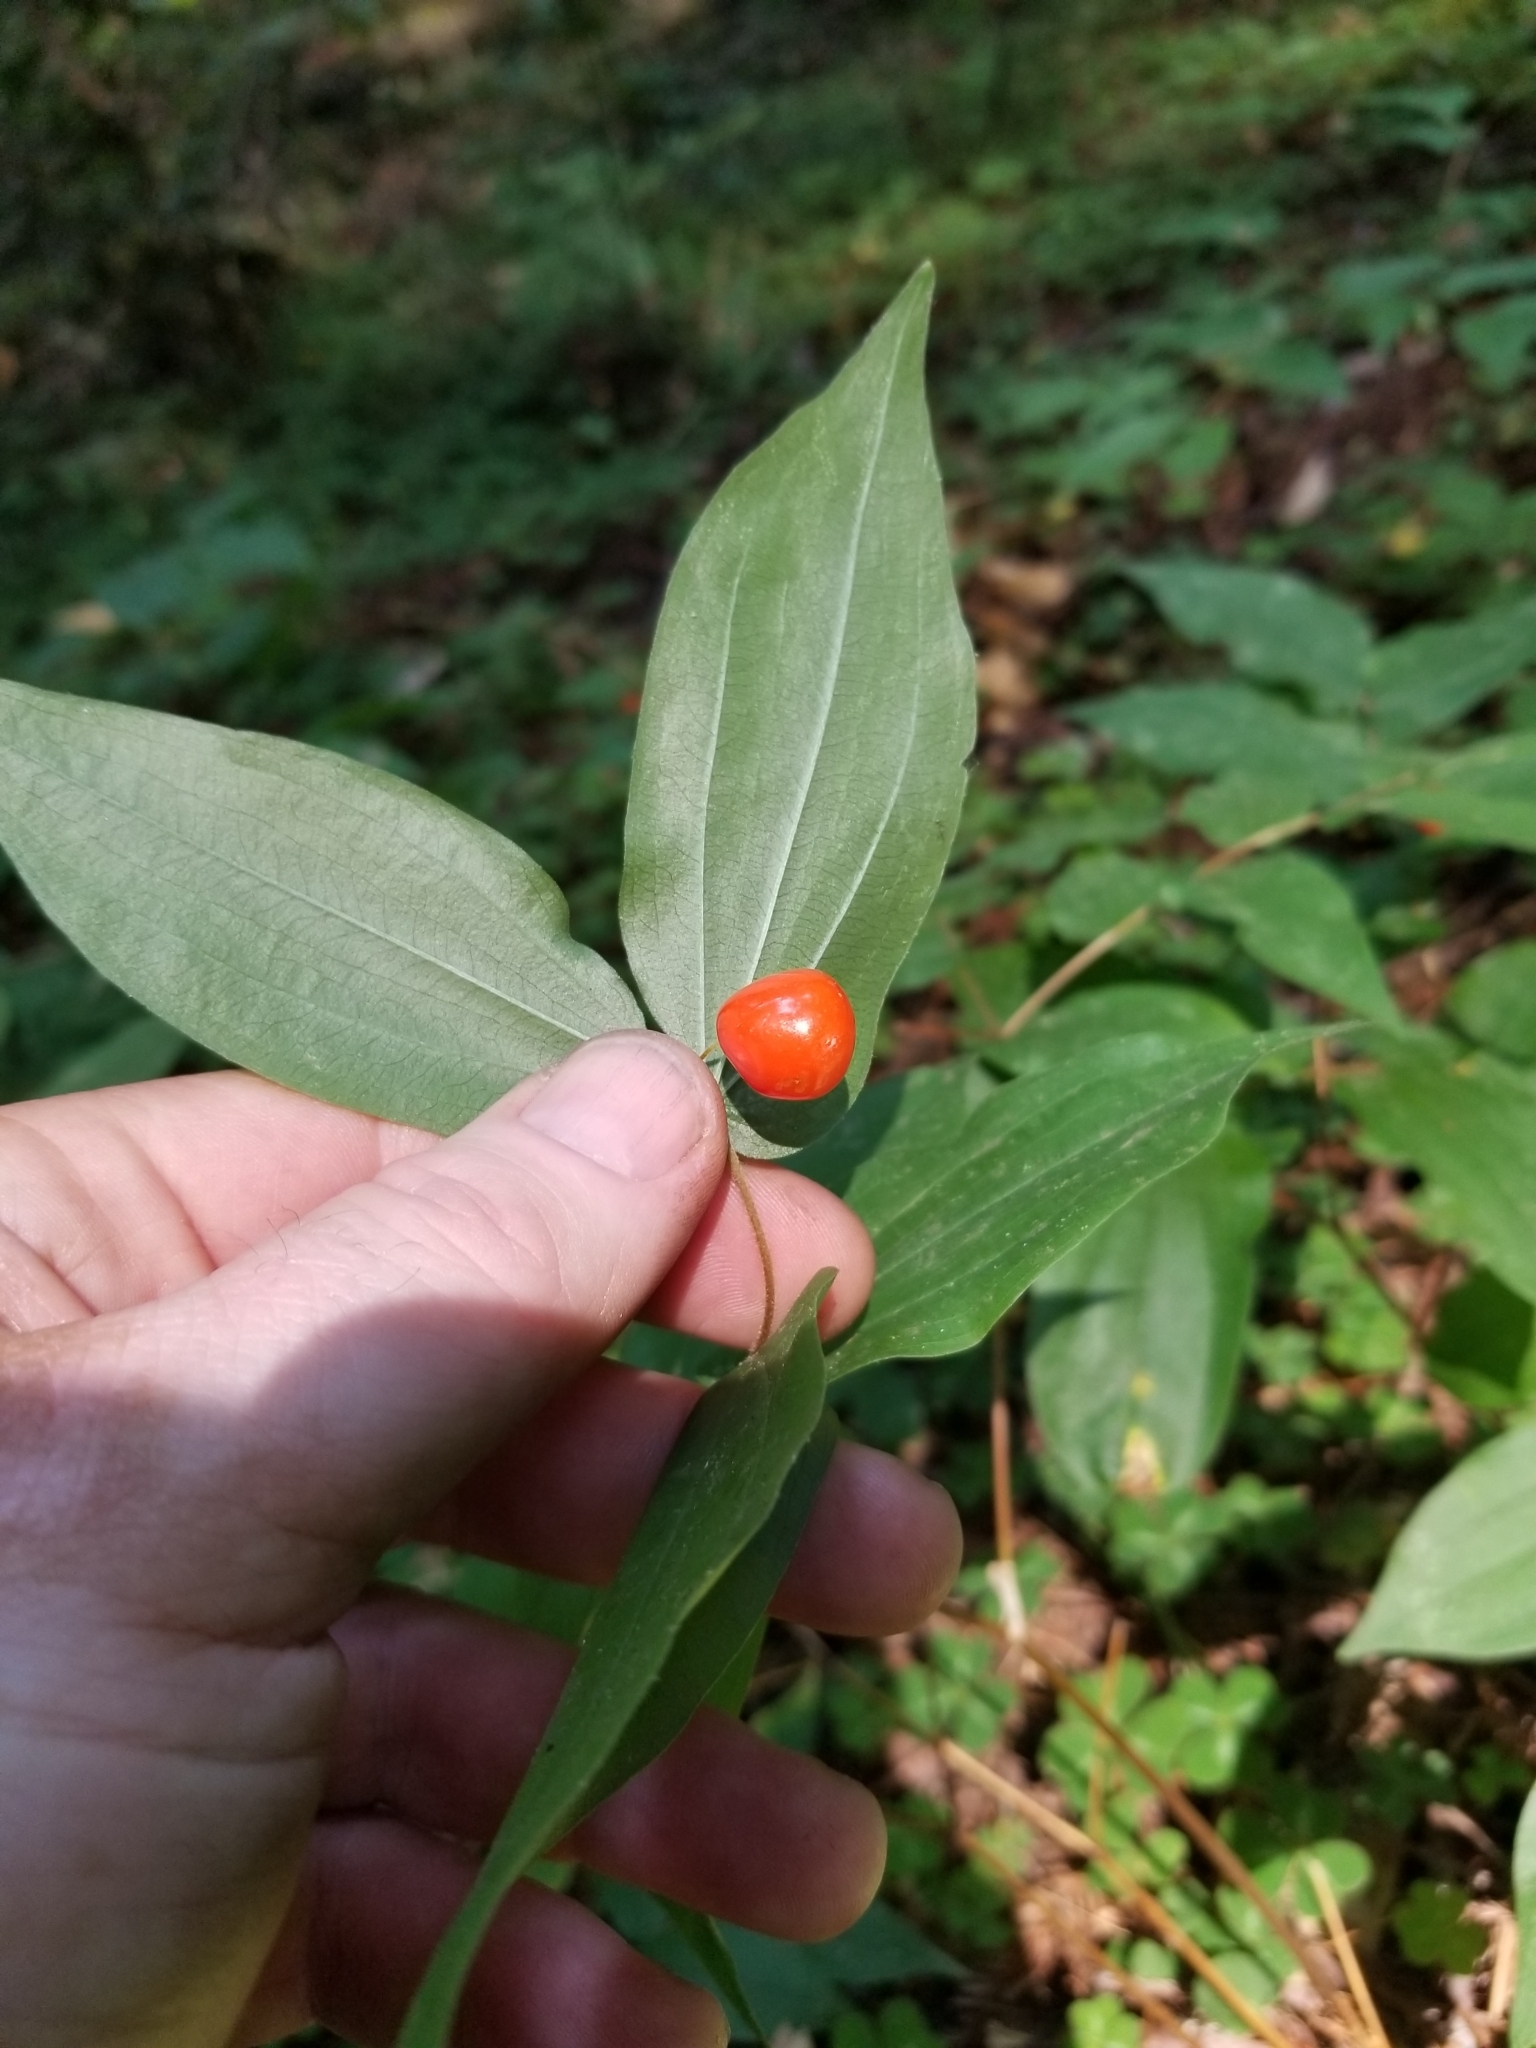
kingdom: Plantae
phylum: Tracheophyta
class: Liliopsida
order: Liliales
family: Liliaceae
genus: Prosartes
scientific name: Prosartes hookeri
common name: Fairy-bells
